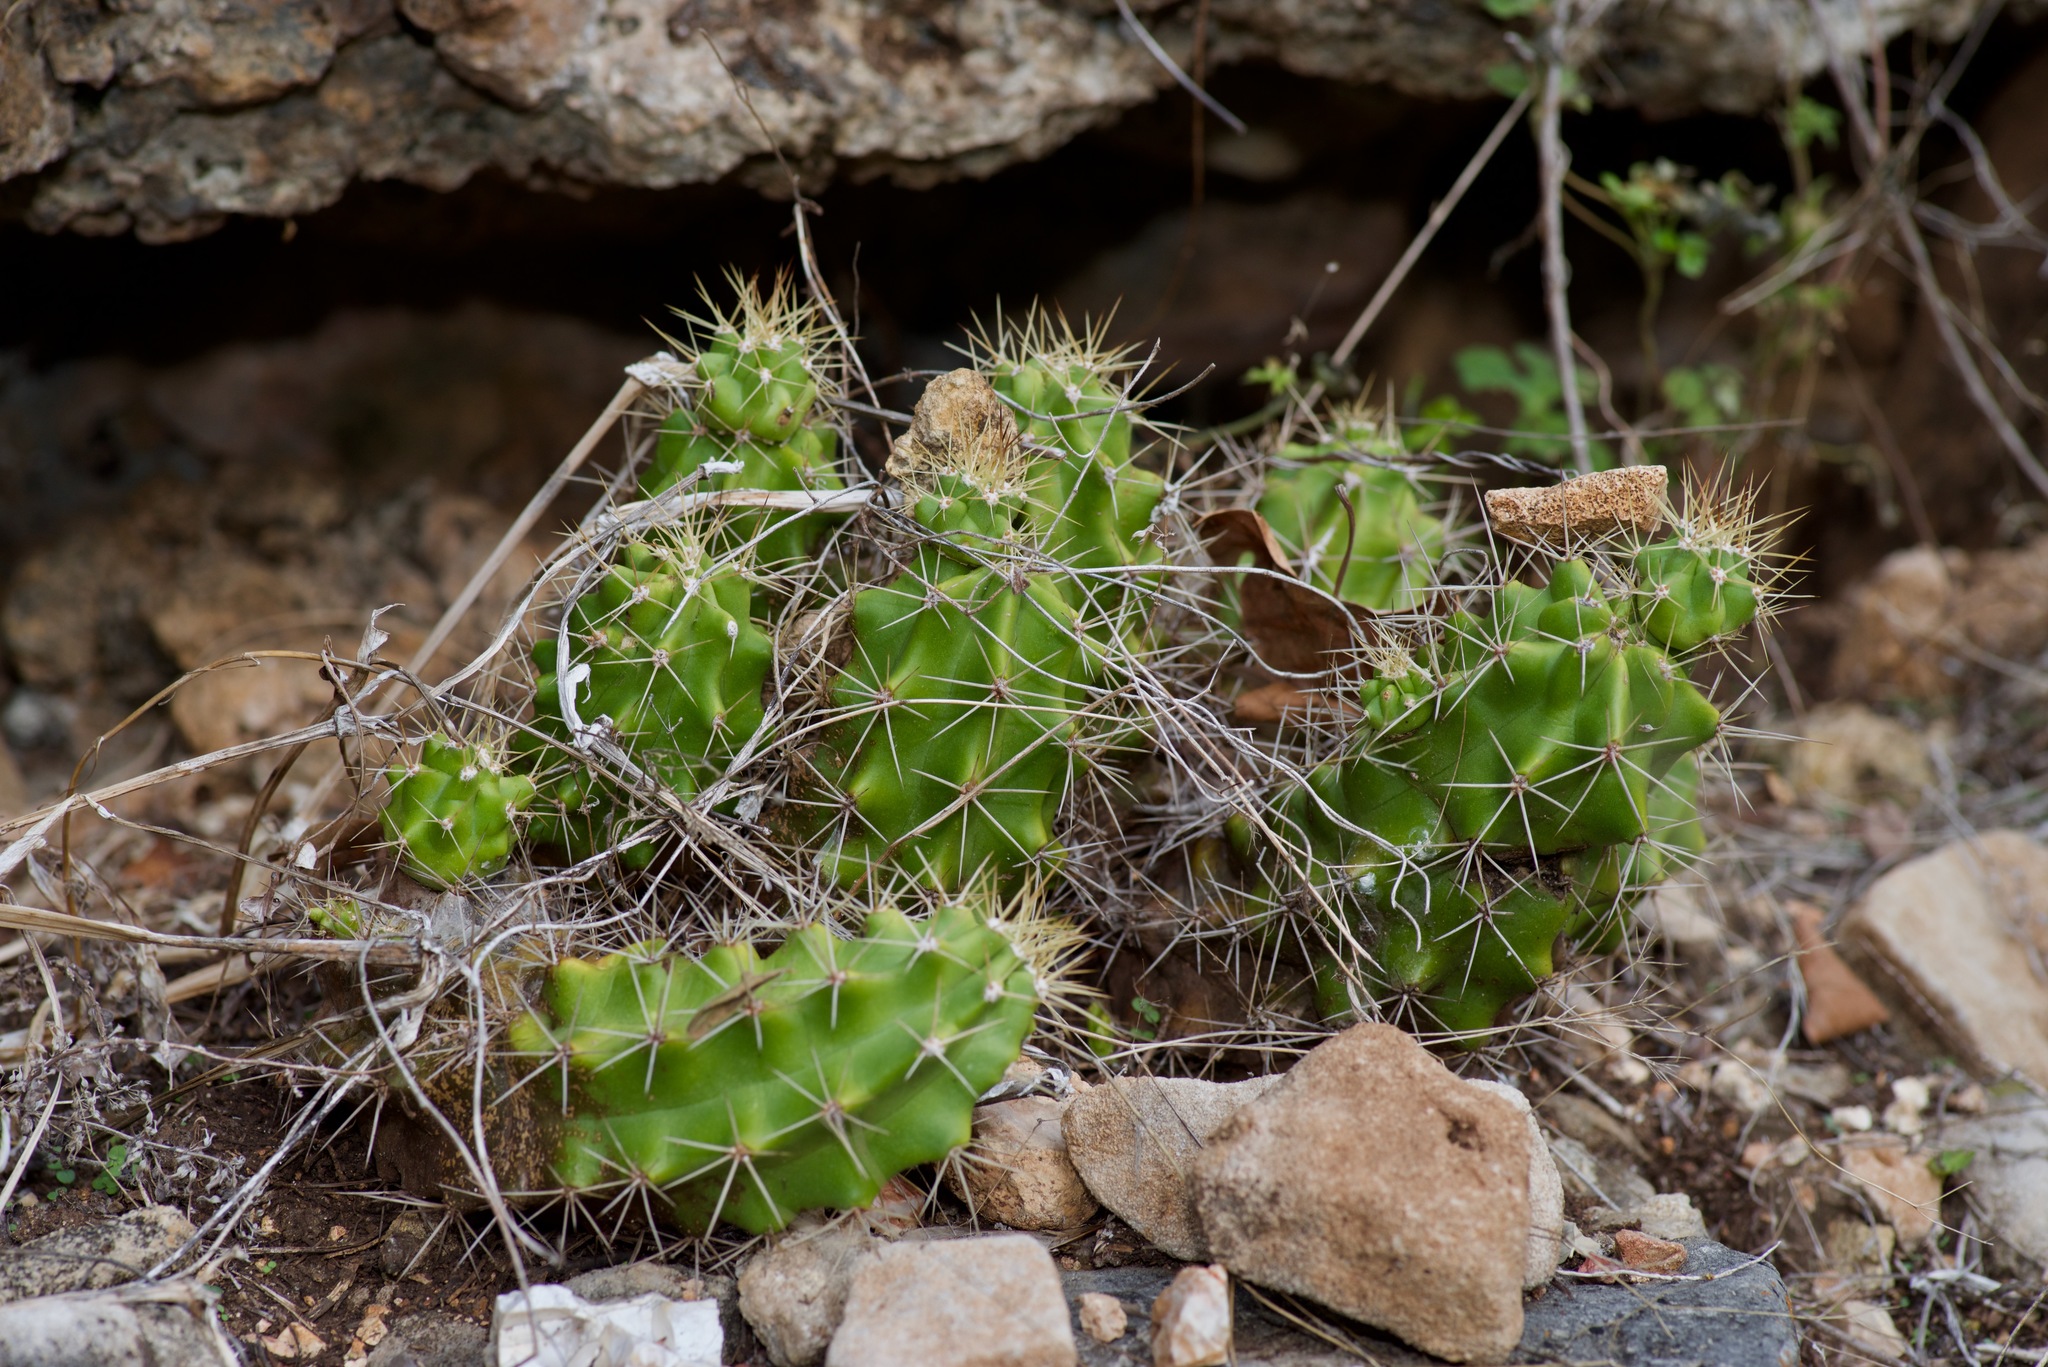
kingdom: Plantae
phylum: Tracheophyta
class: Magnoliopsida
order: Caryophyllales
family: Cactaceae
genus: Echinocereus
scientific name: Echinocereus coccineus
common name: Scarlet hedgehog cactus
